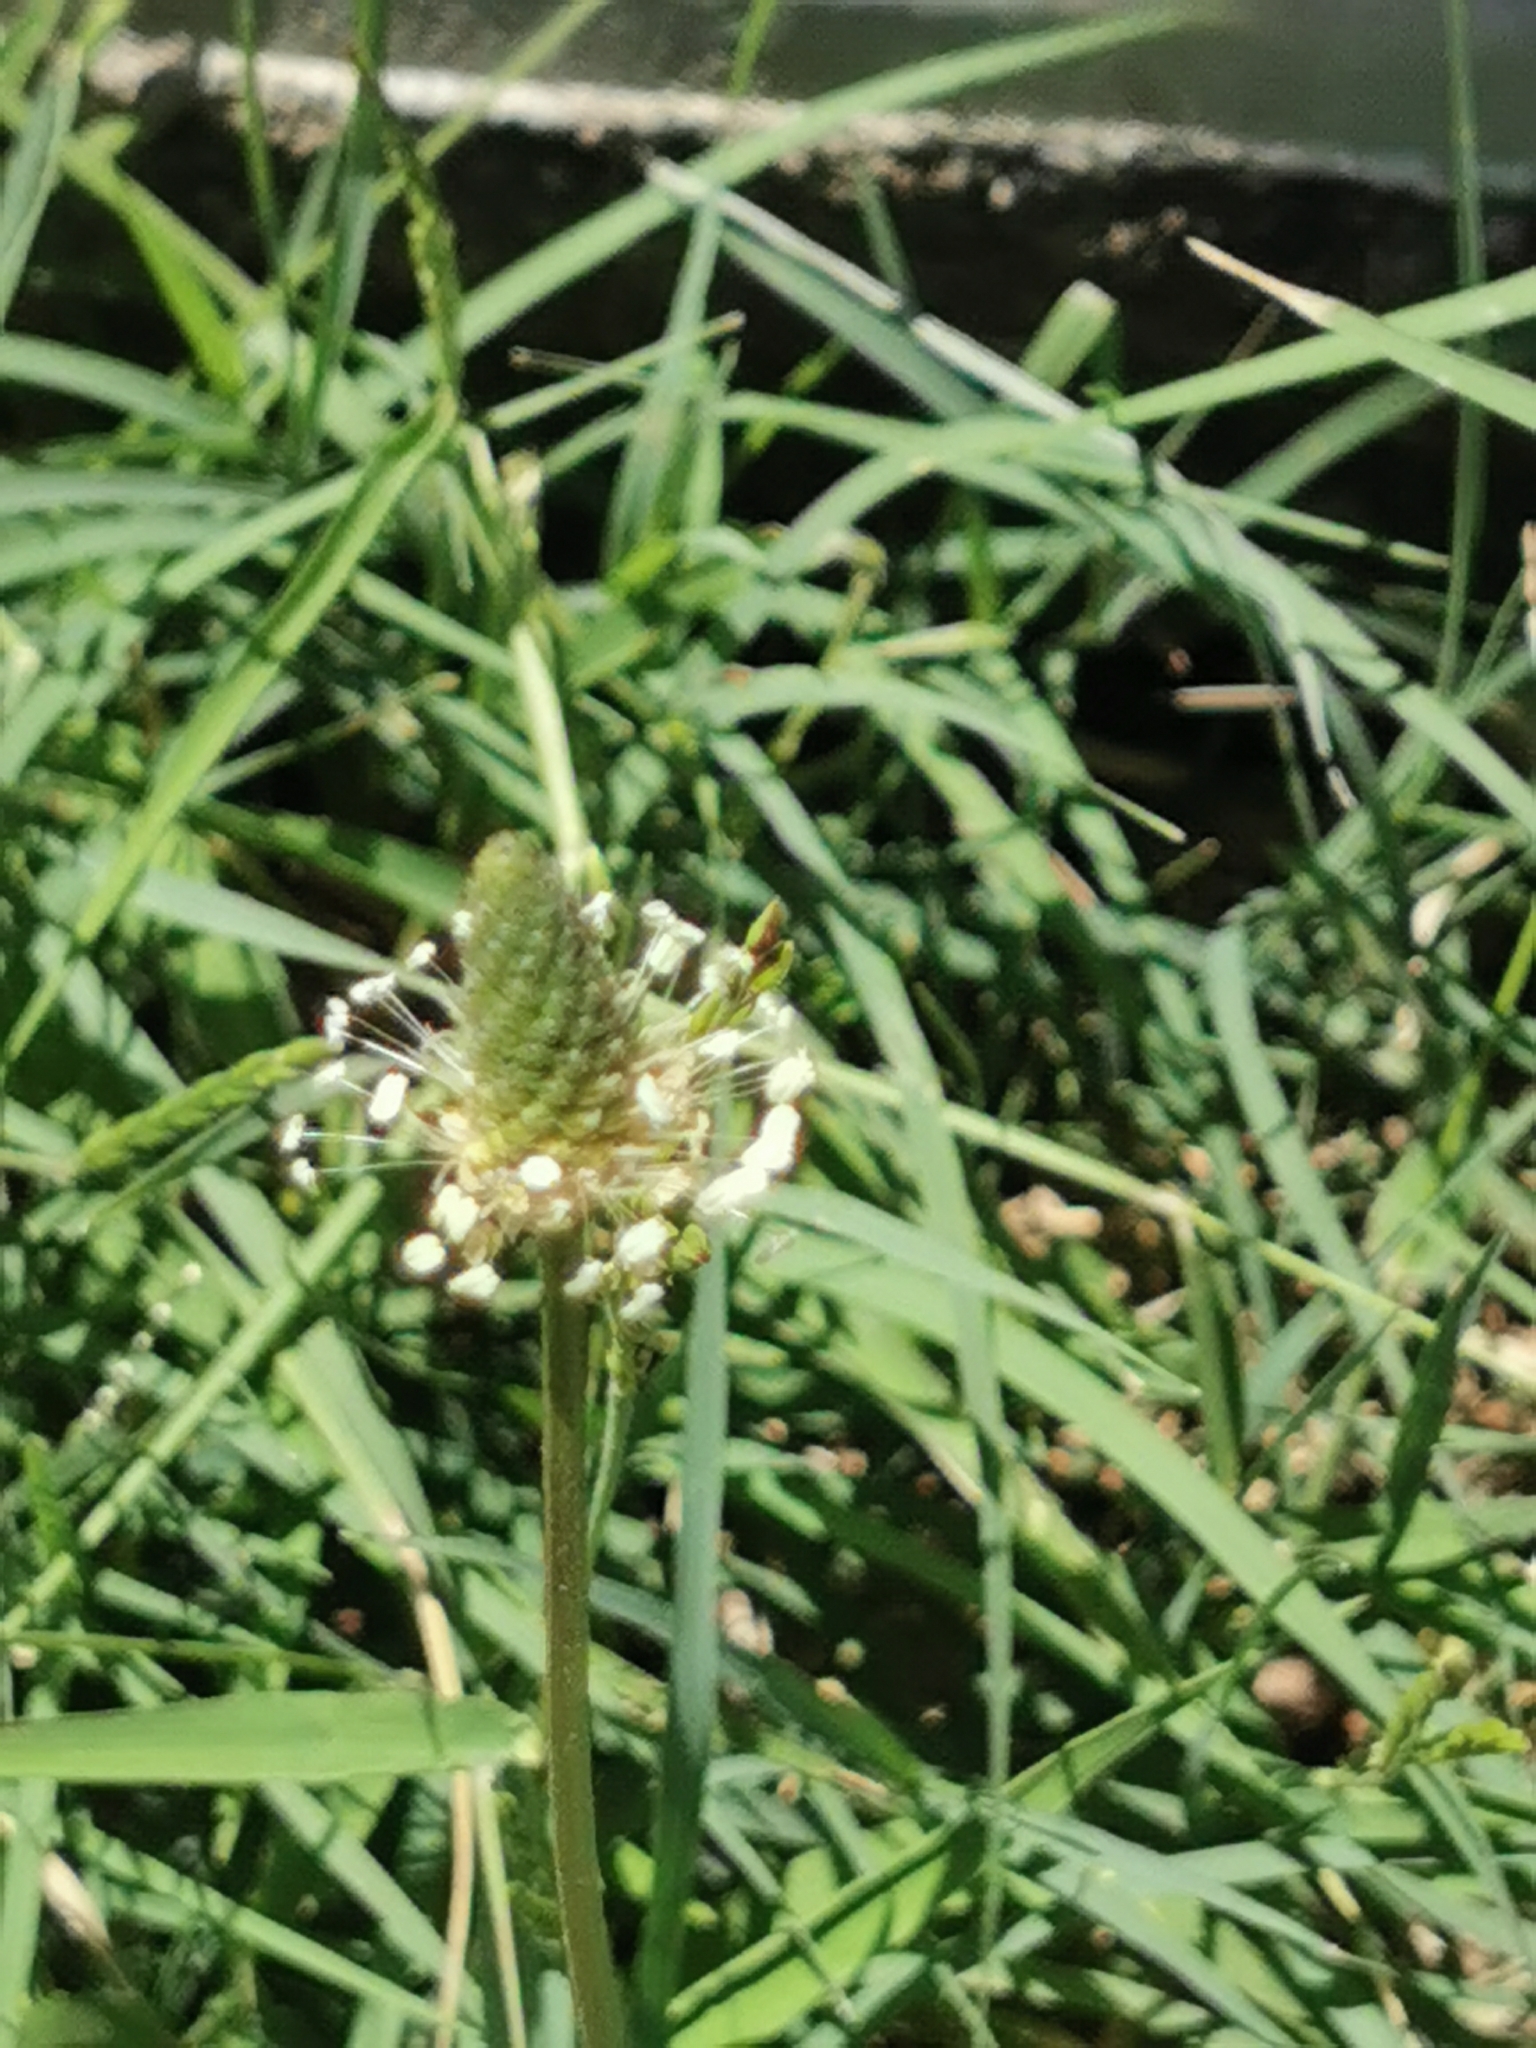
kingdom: Plantae
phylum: Tracheophyta
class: Magnoliopsida
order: Lamiales
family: Plantaginaceae
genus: Plantago
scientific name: Plantago lanceolata
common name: Ribwort plantain
